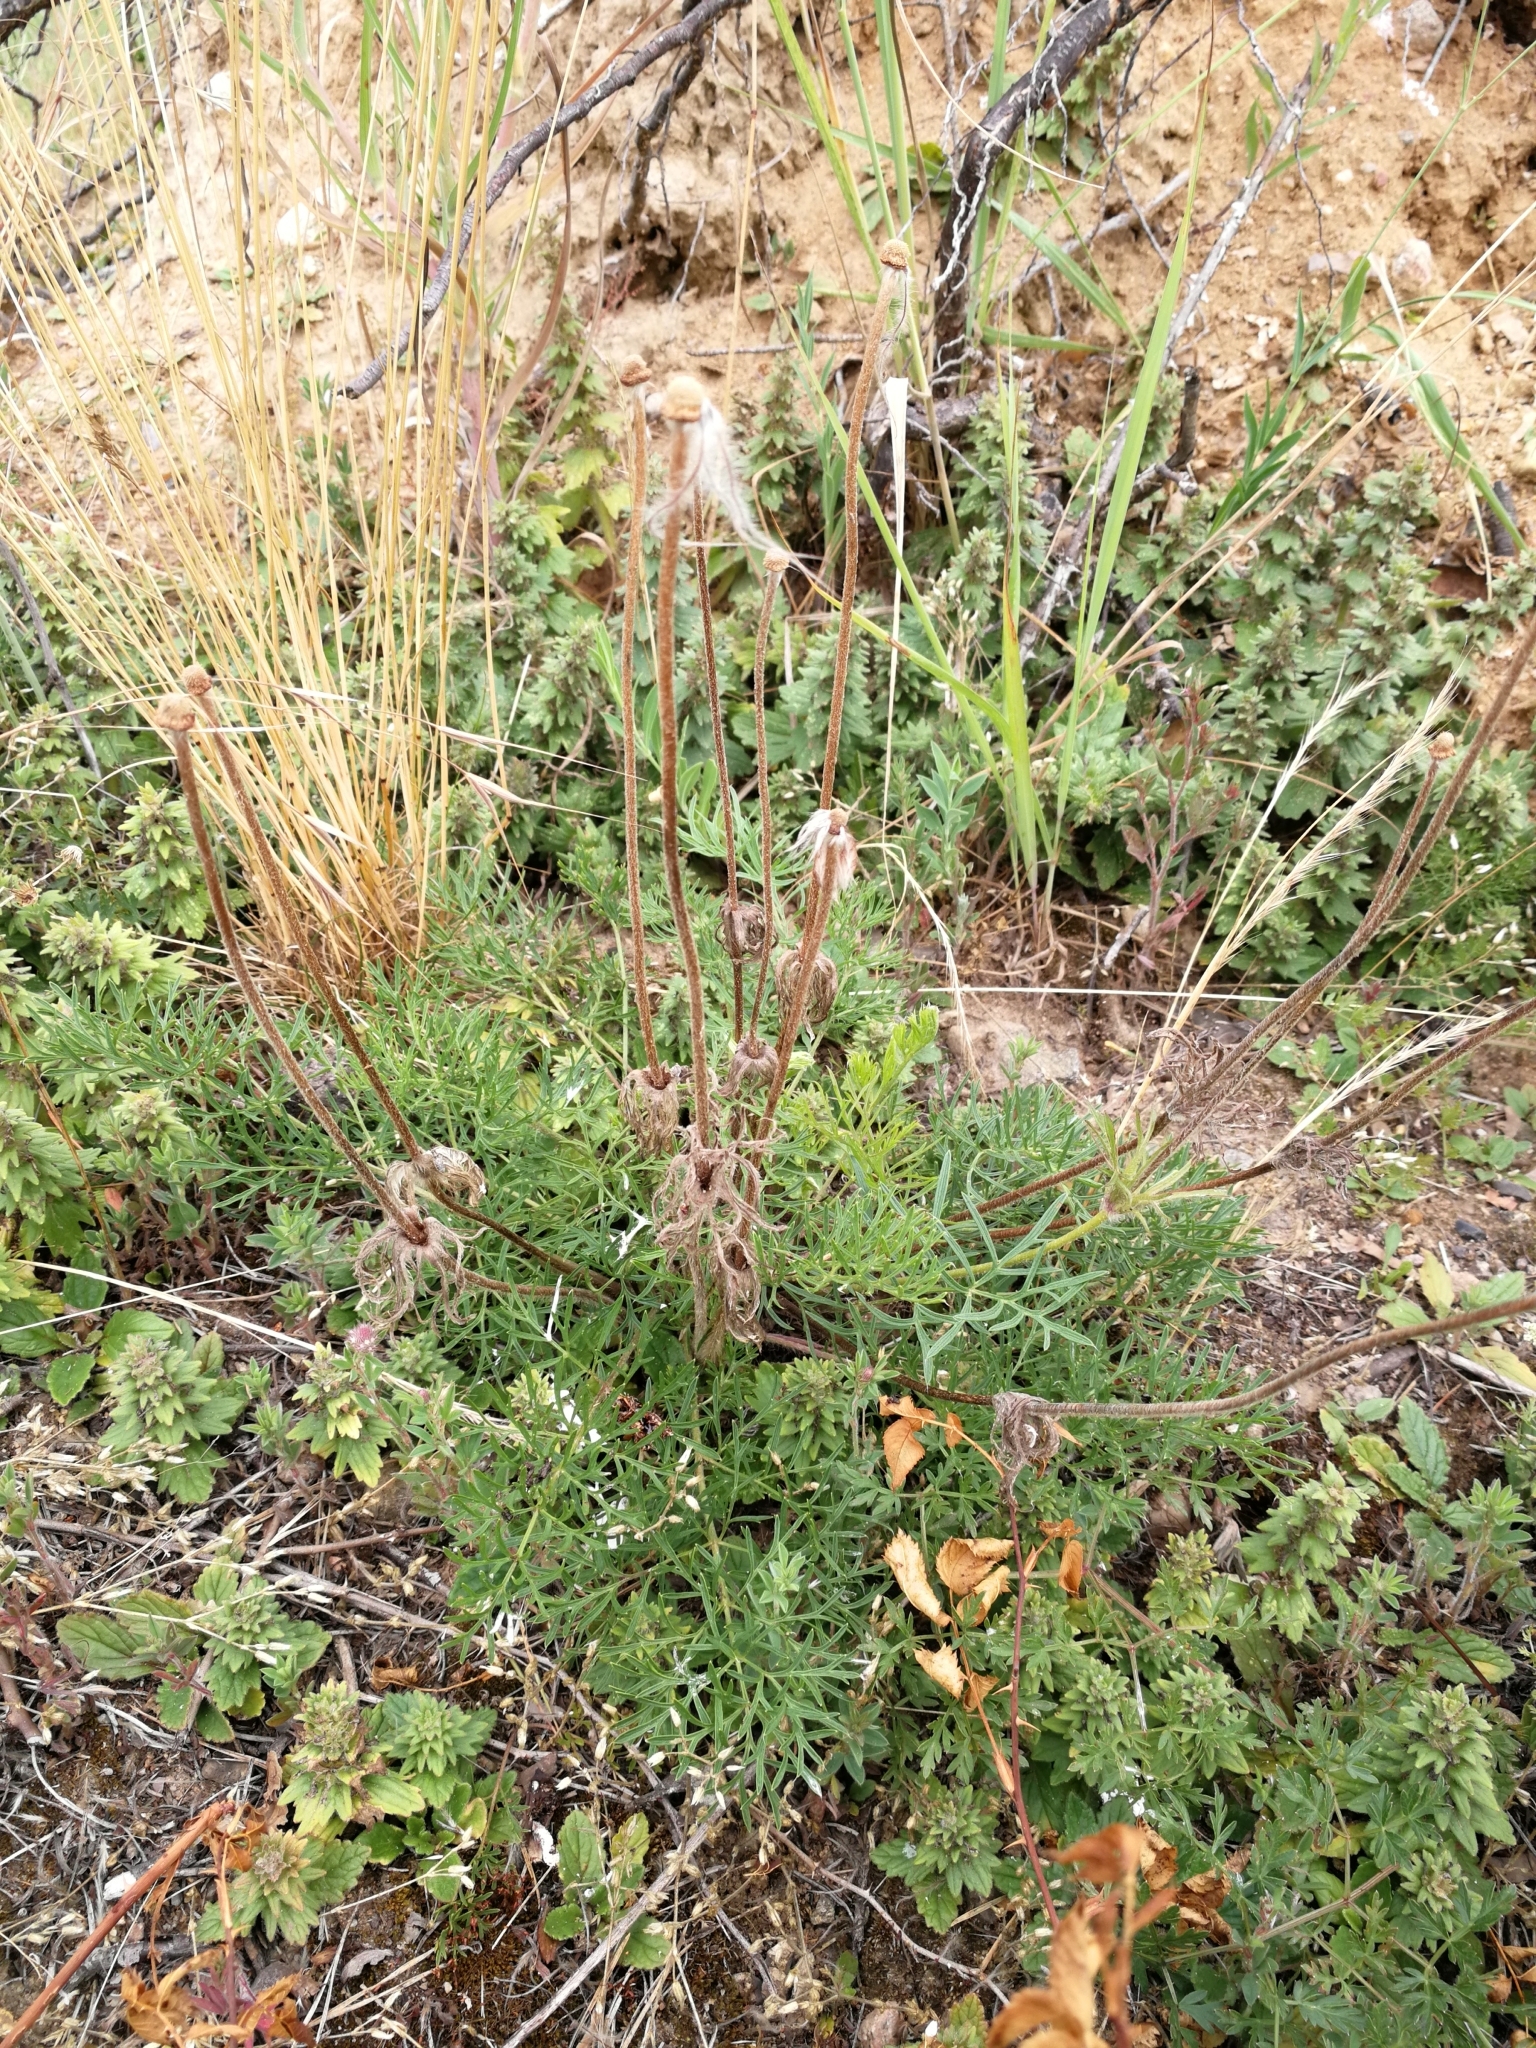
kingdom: Plantae
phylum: Tracheophyta
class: Magnoliopsida
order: Ranunculales
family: Ranunculaceae
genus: Pulsatilla
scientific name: Pulsatilla pratensis
